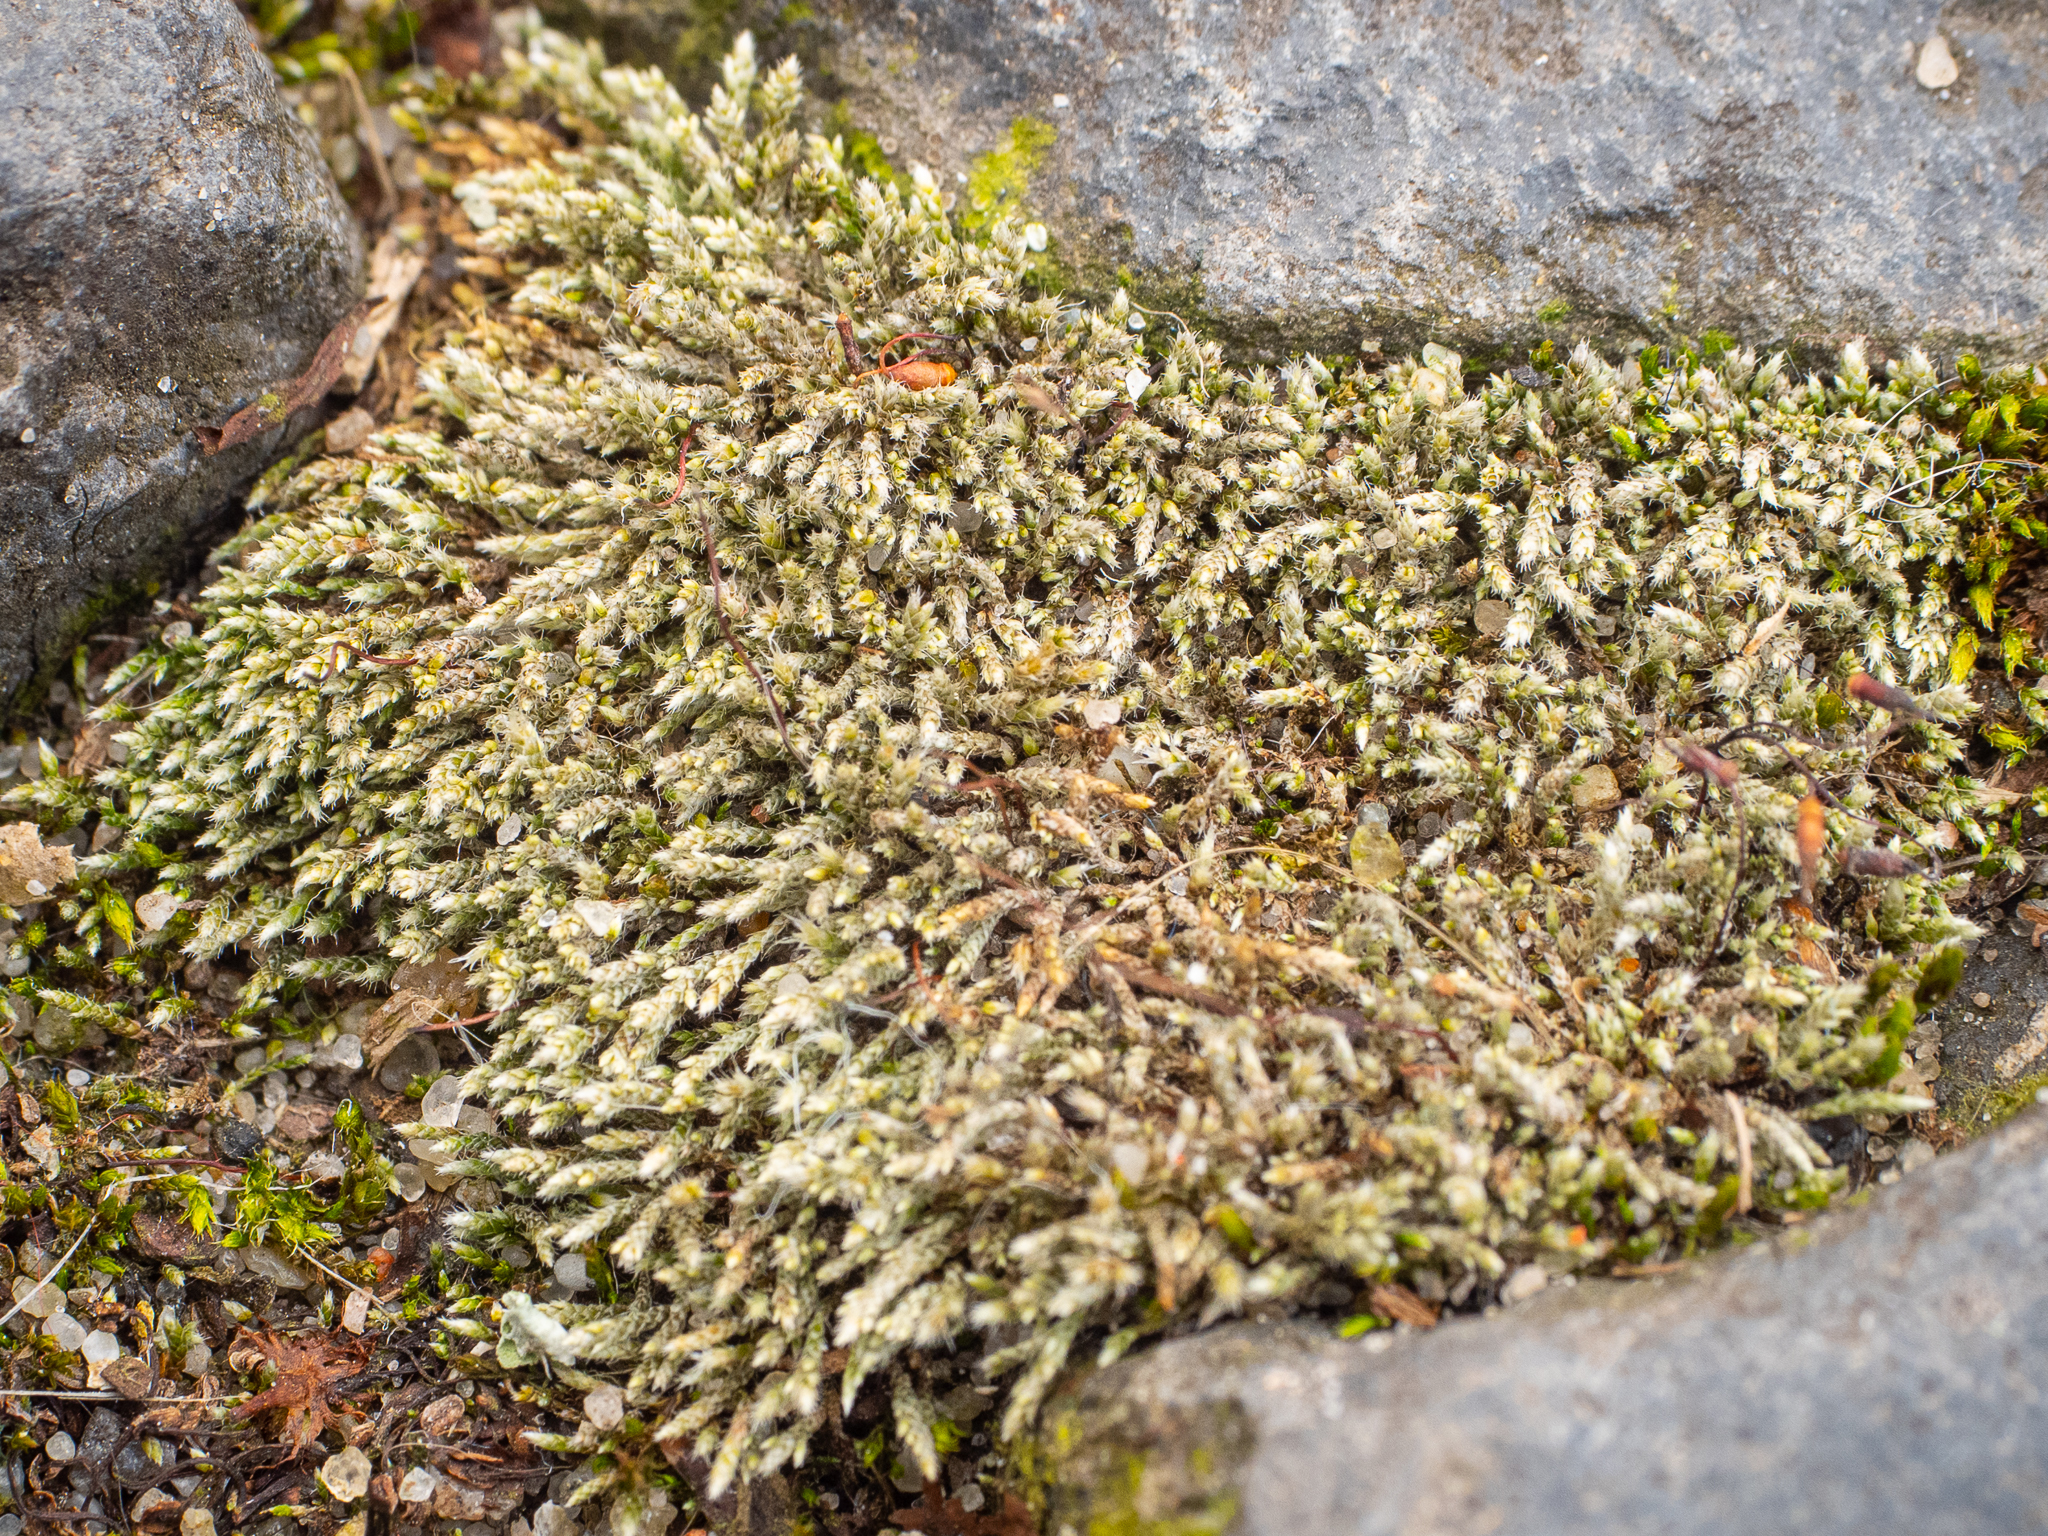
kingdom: Plantae
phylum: Bryophyta
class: Bryopsida
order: Bryales
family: Bryaceae
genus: Bryum
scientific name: Bryum argenteum
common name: Silver-moss
